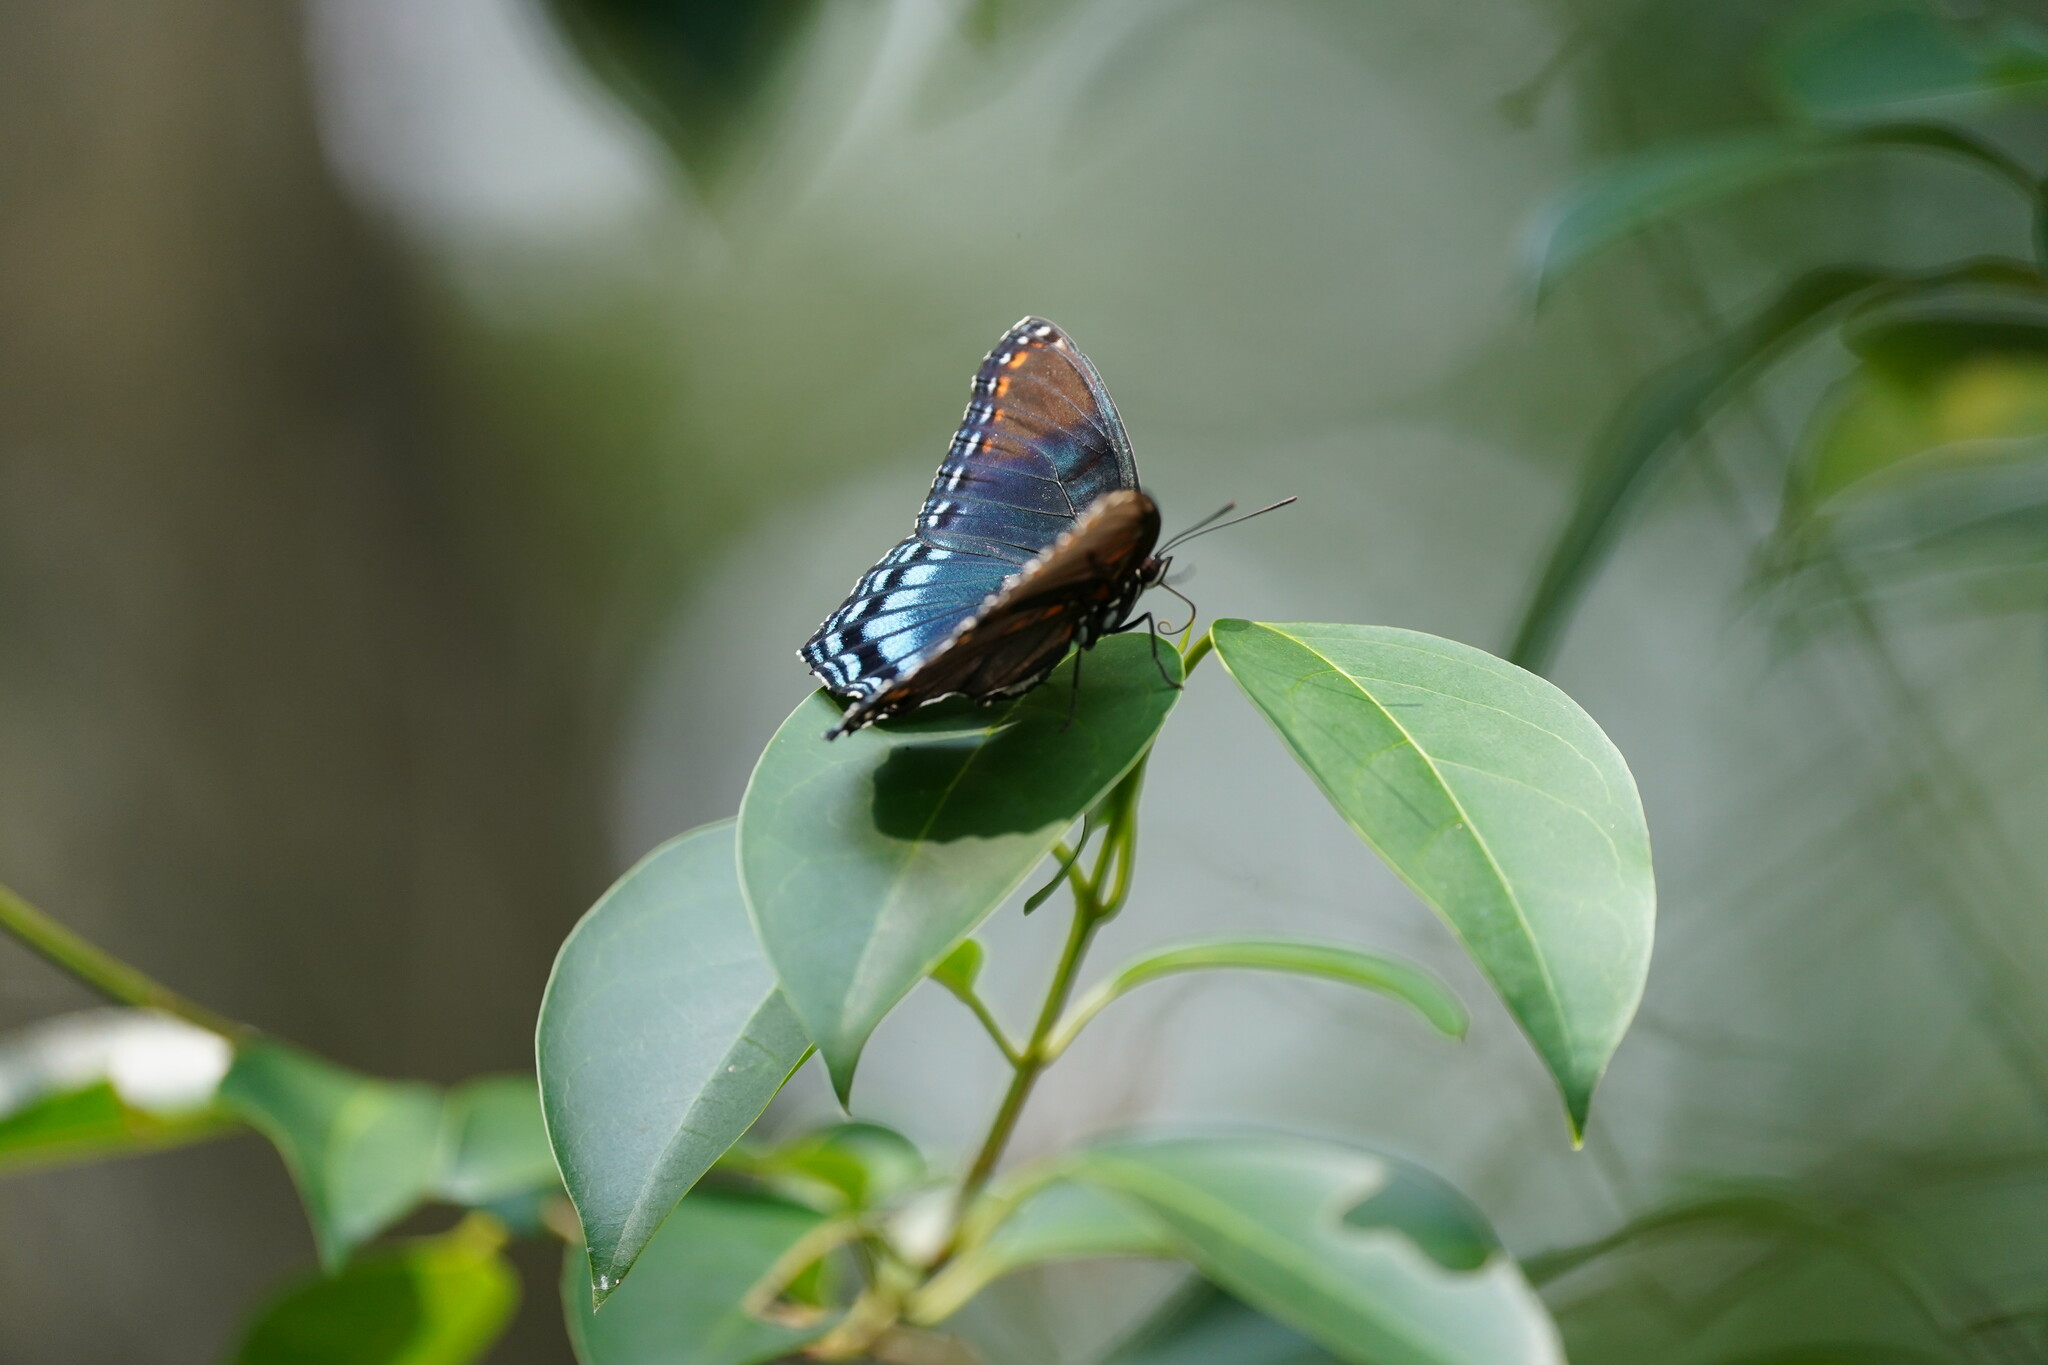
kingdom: Animalia
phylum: Arthropoda
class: Insecta
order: Lepidoptera
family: Nymphalidae
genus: Limenitis
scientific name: Limenitis arthemis
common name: Red-spotted admiral
